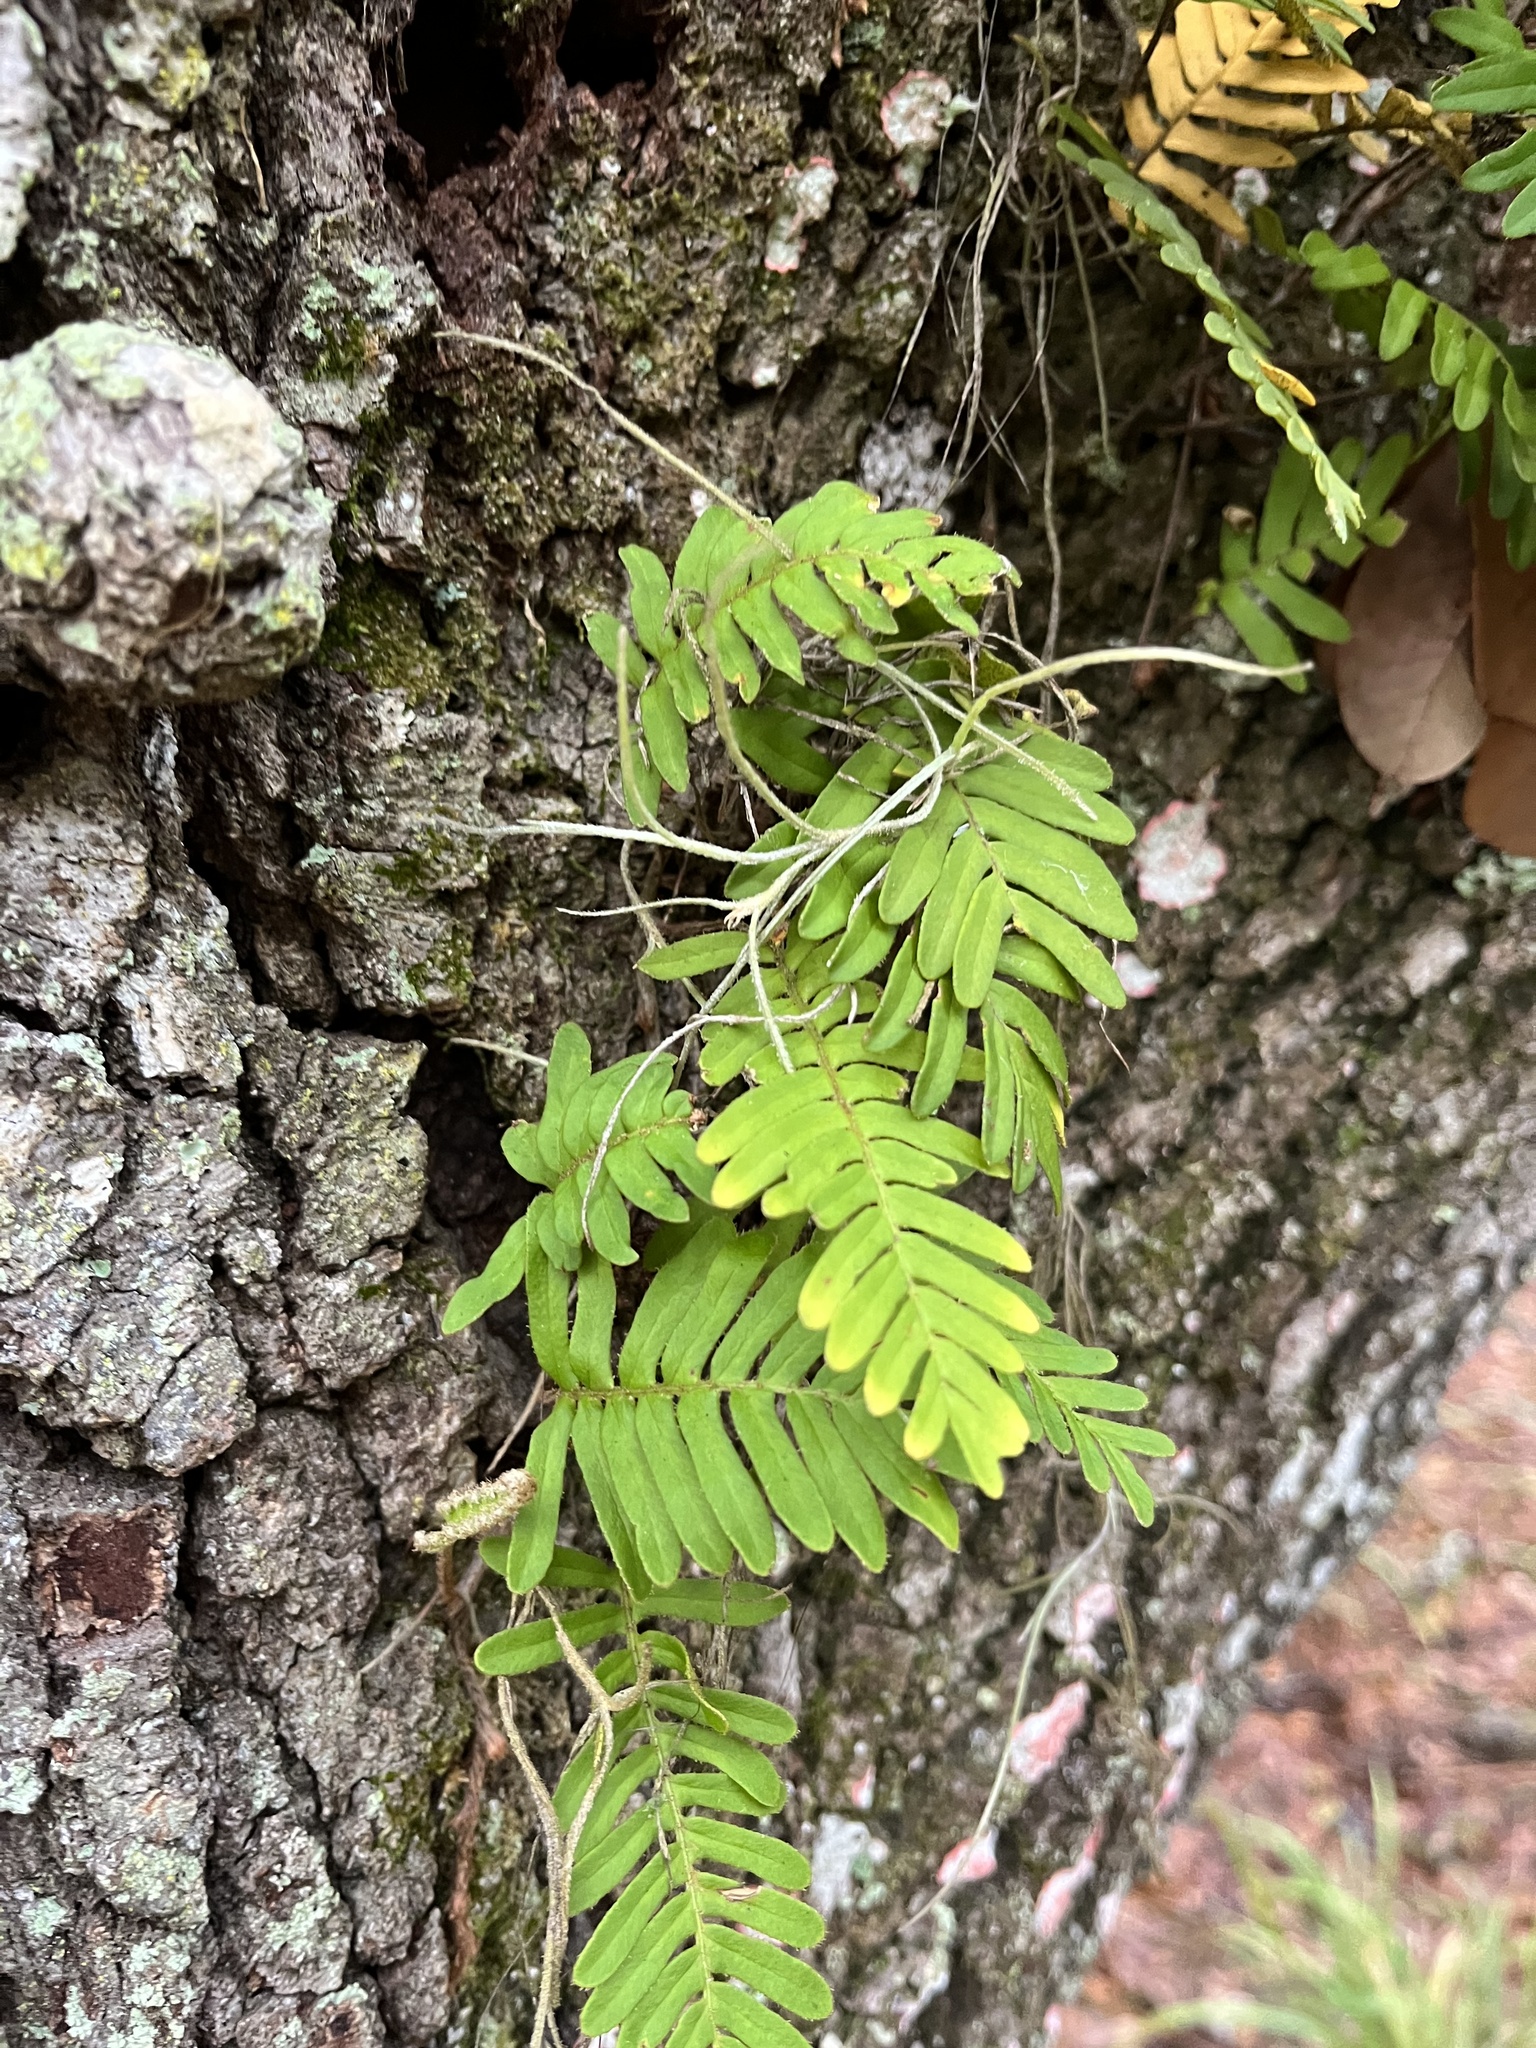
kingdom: Plantae
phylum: Tracheophyta
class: Polypodiopsida
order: Polypodiales
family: Polypodiaceae
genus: Pleopeltis
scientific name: Pleopeltis michauxiana
